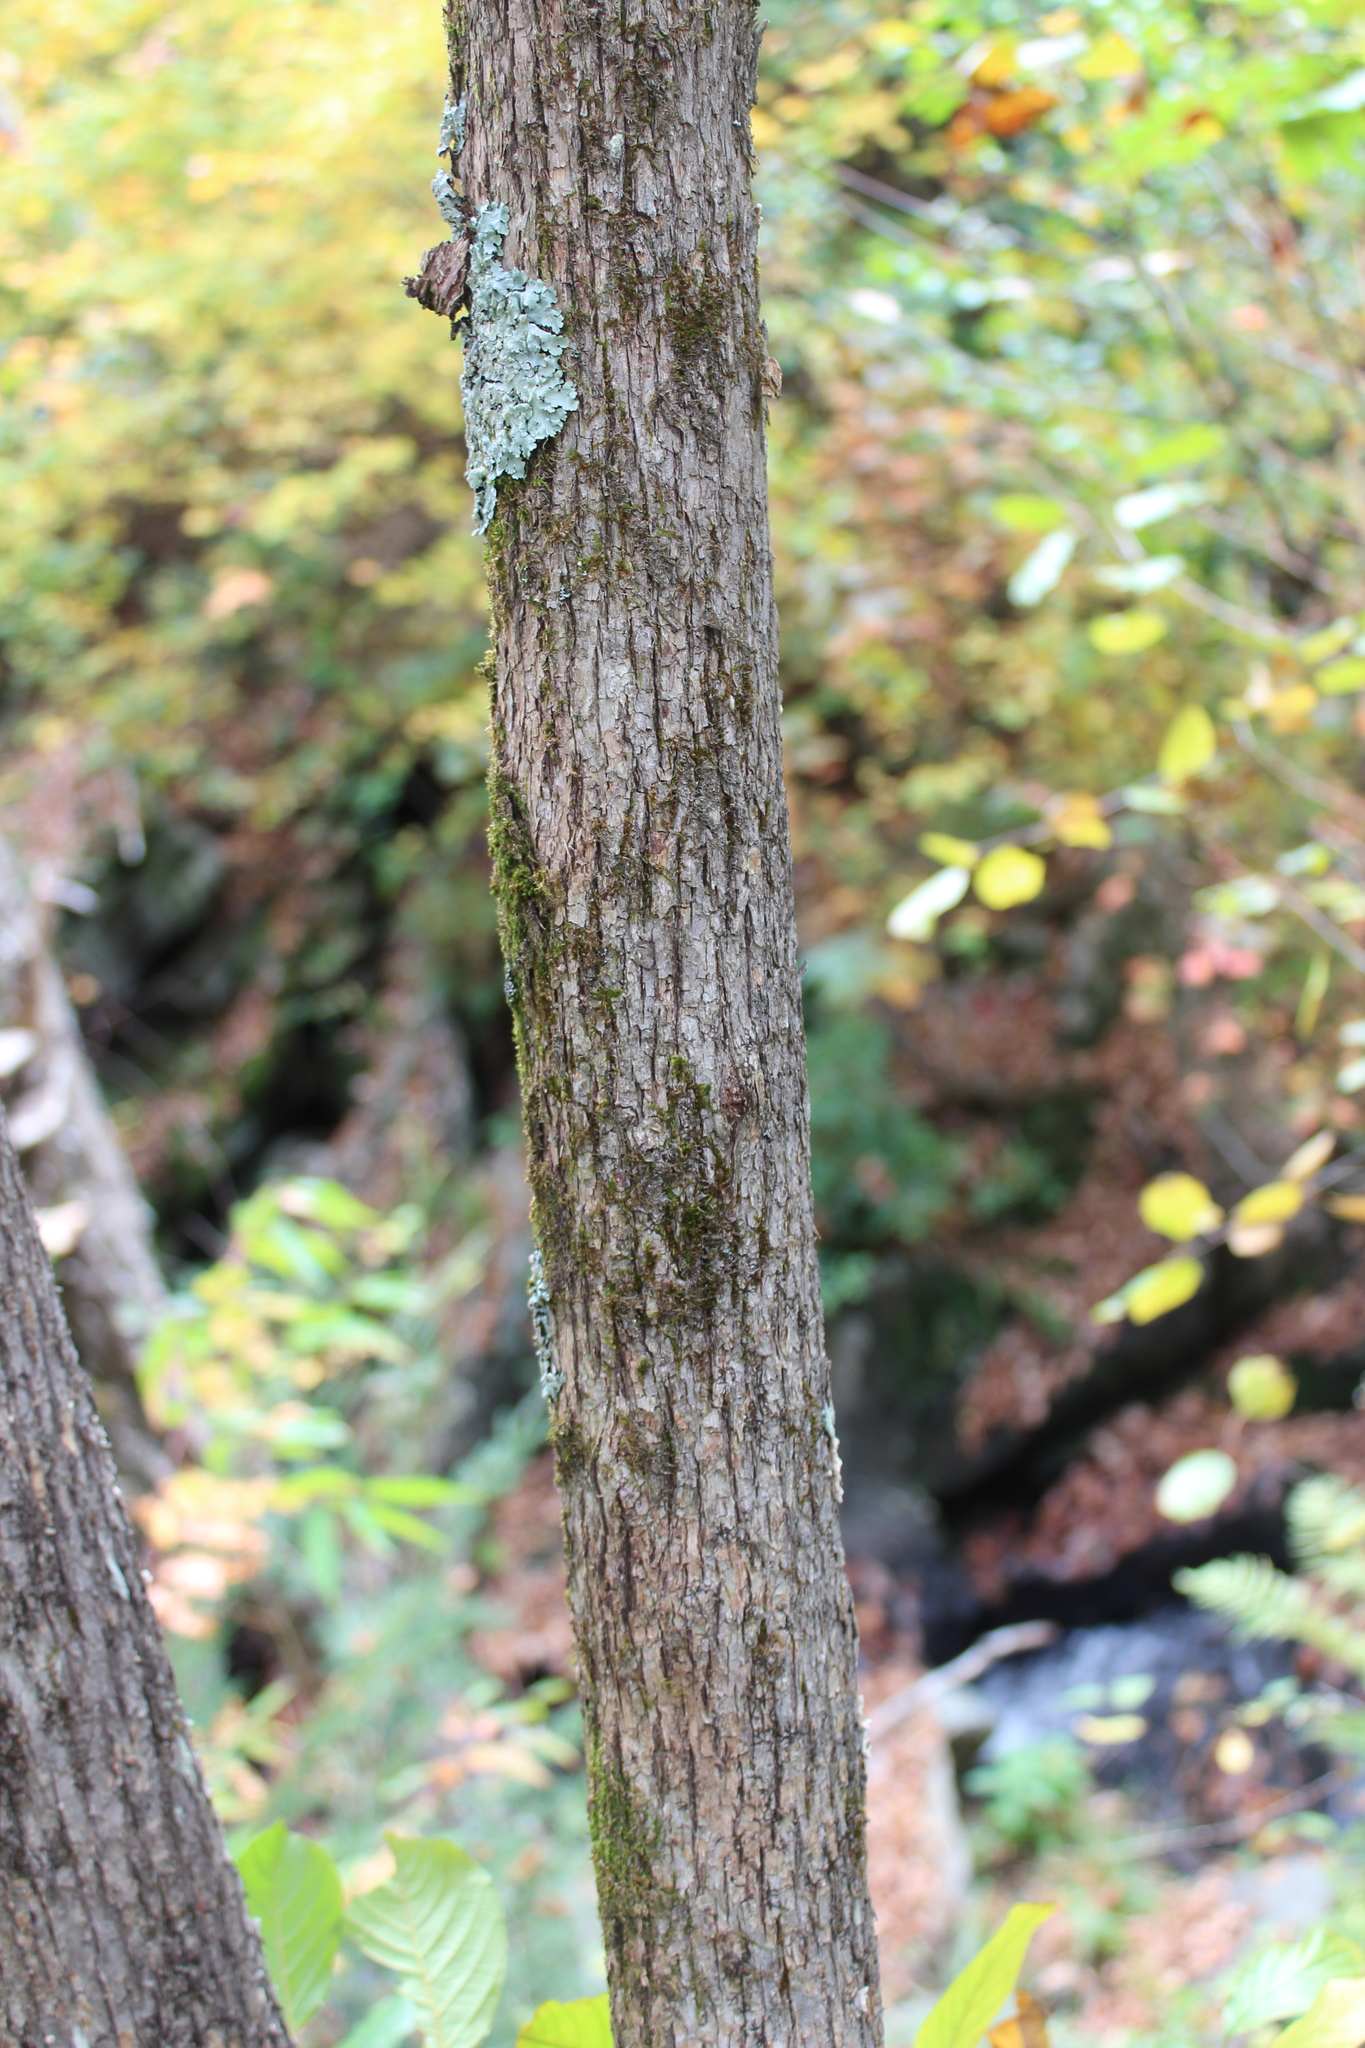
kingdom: Plantae
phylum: Tracheophyta
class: Magnoliopsida
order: Fagales
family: Betulaceae
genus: Ostrya
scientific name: Ostrya virginiana
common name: Ironwood
